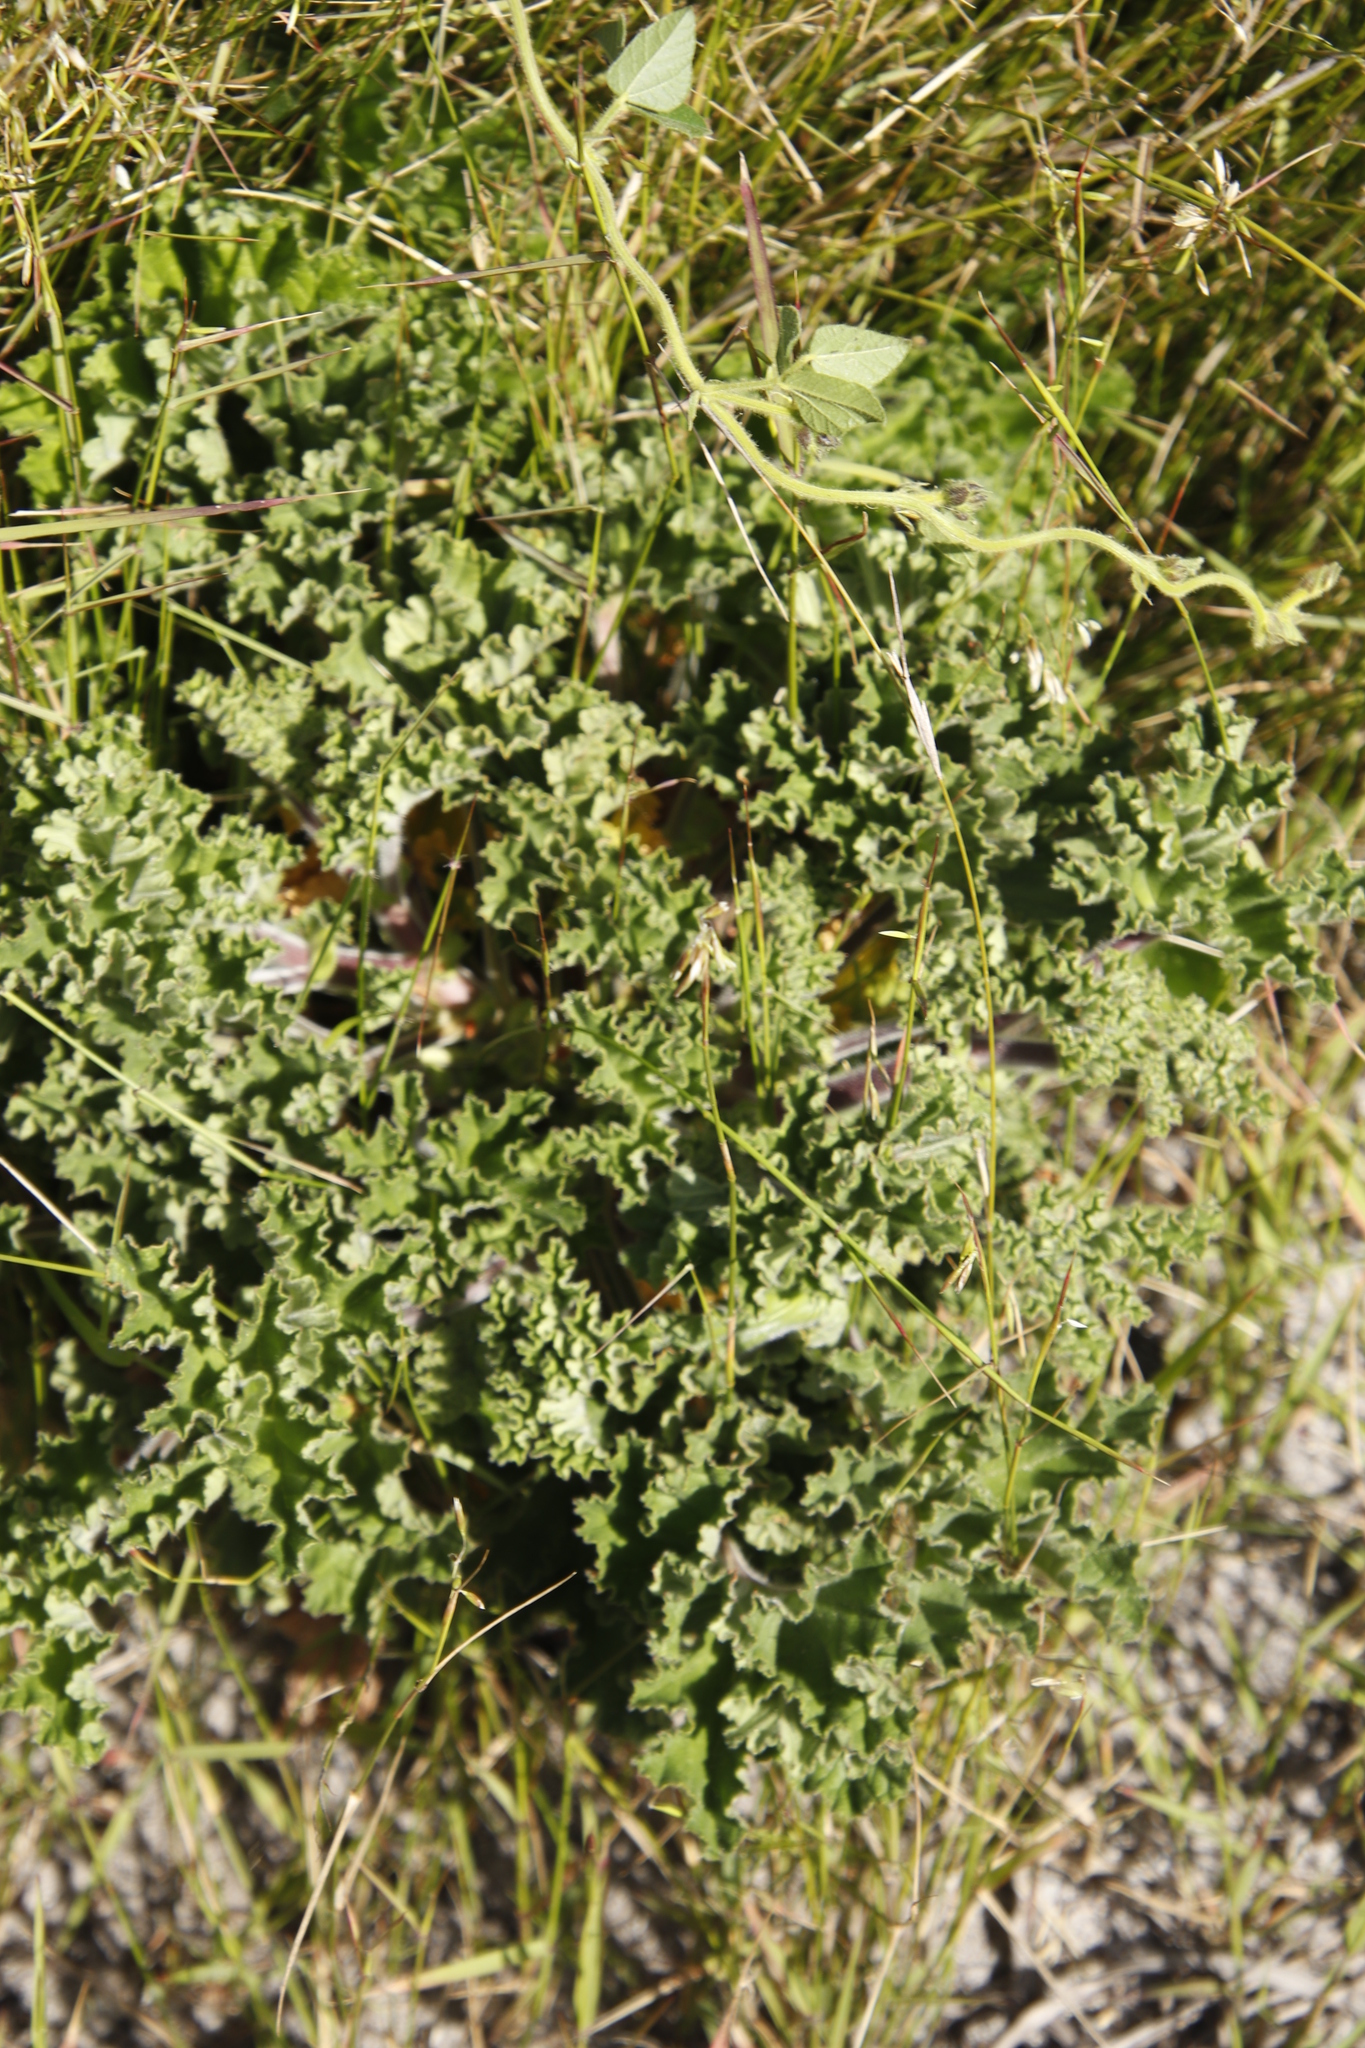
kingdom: Plantae
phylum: Tracheophyta
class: Magnoliopsida
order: Geraniales
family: Geraniaceae
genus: Pelargonium
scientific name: Pelargonium capitatum
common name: Rose scented geranium
